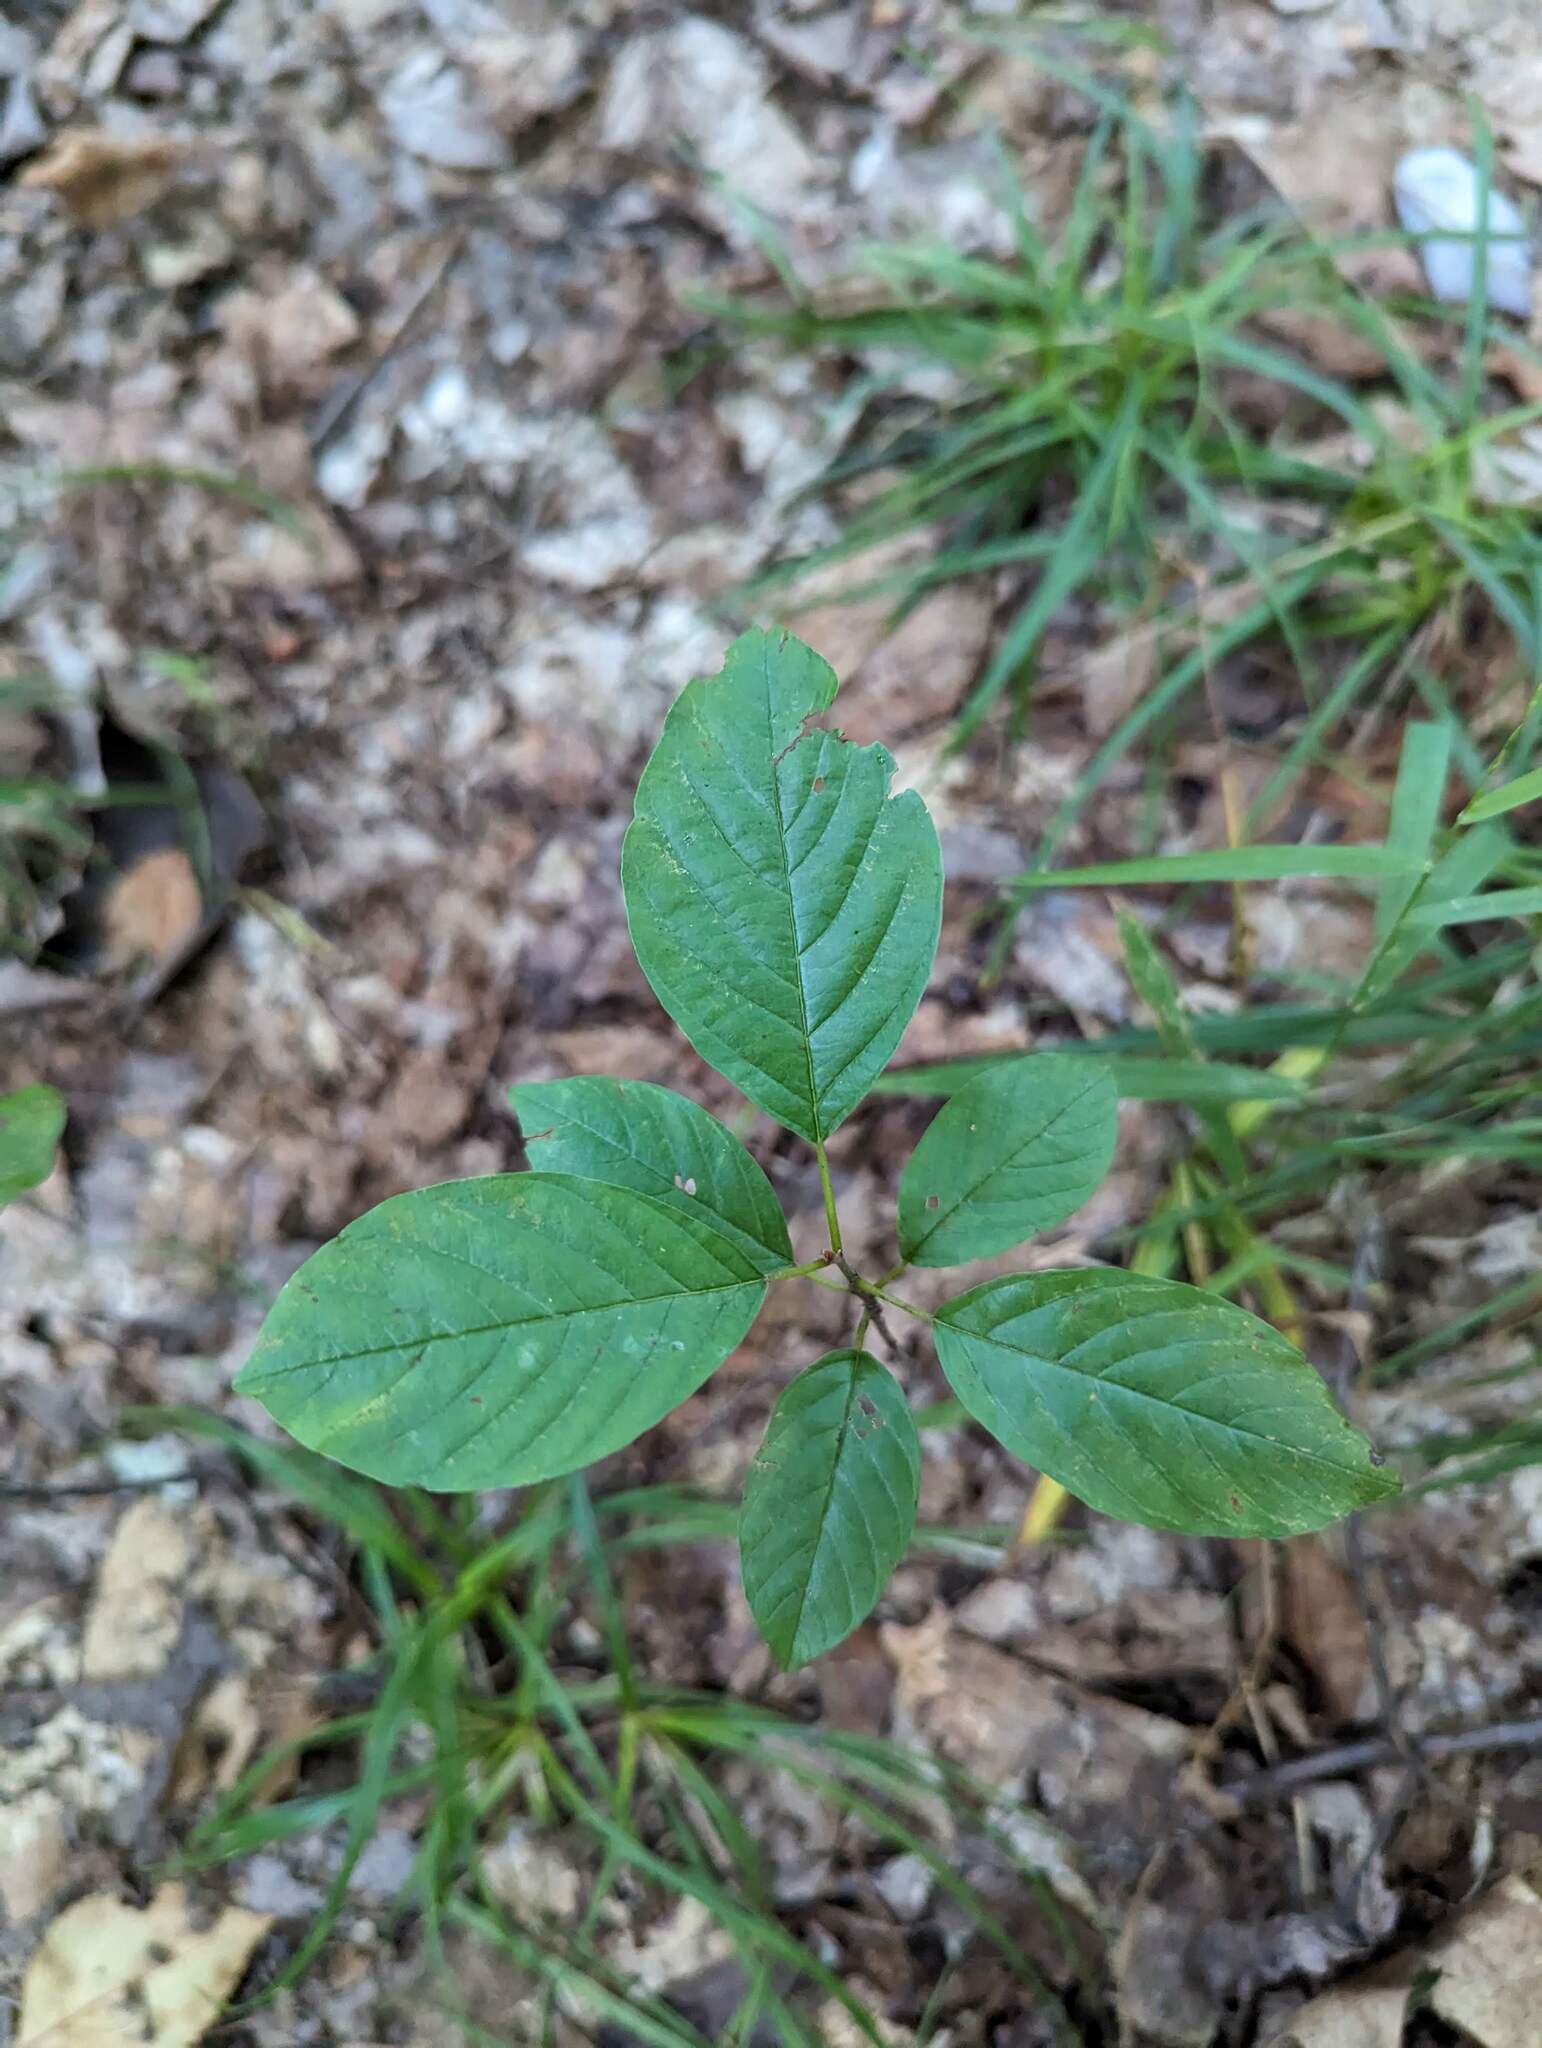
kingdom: Plantae
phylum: Tracheophyta
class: Magnoliopsida
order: Rosales
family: Rhamnaceae
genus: Frangula
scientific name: Frangula alnus
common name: Alder buckthorn
